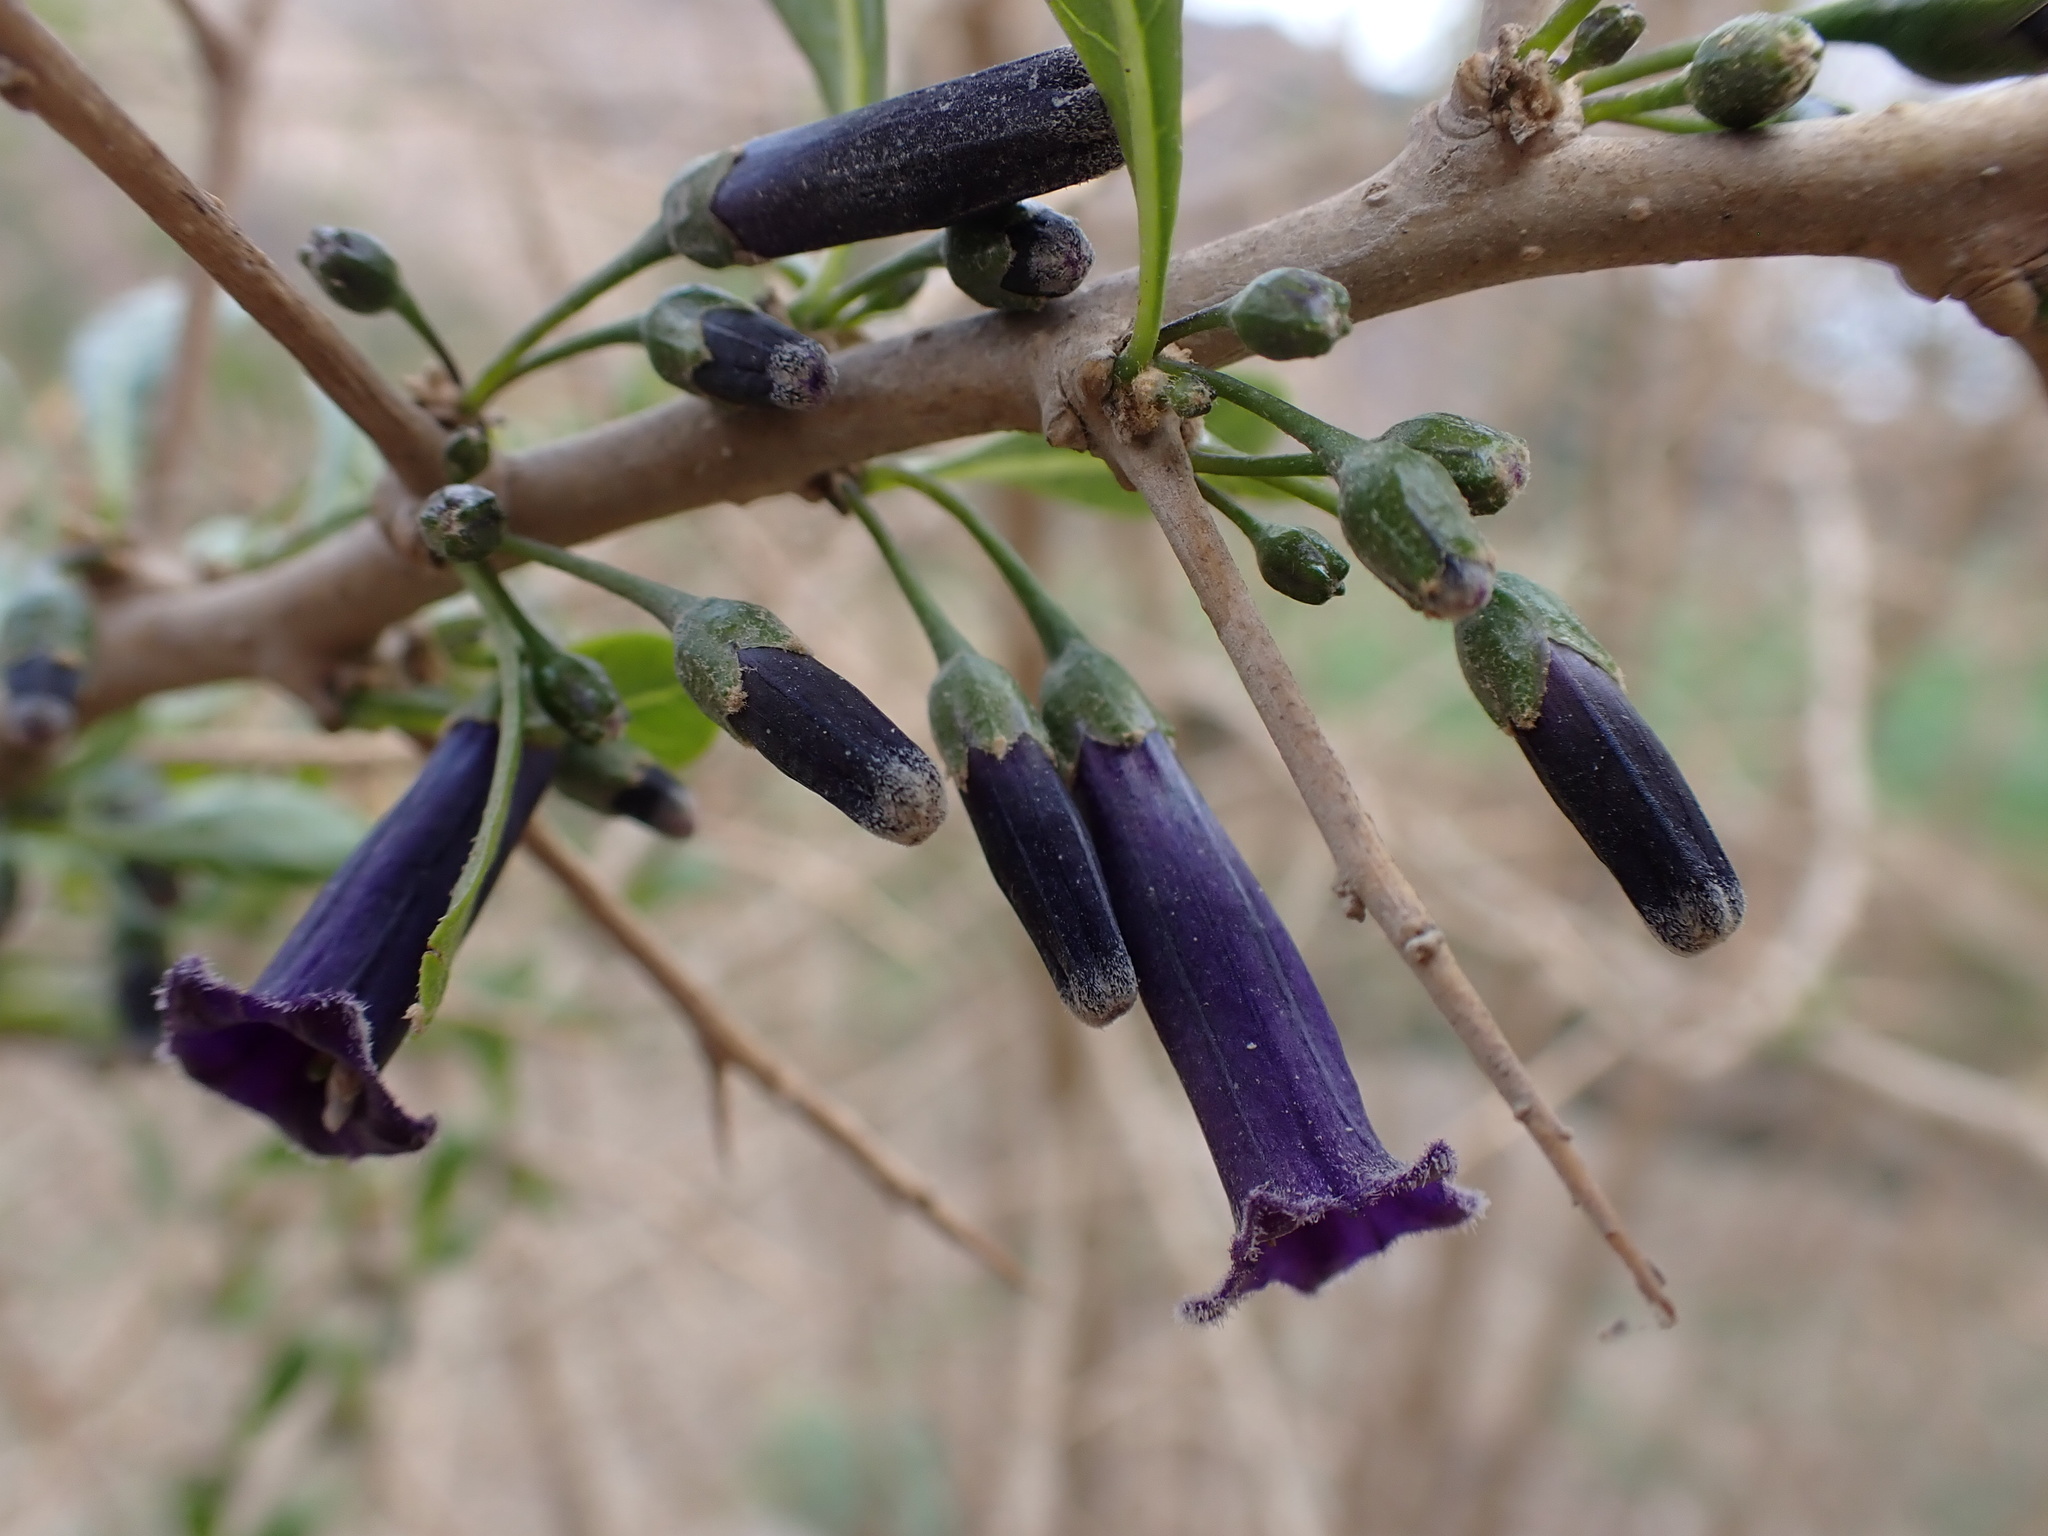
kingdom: Plantae
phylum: Tracheophyta
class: Magnoliopsida
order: Solanales
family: Solanaceae
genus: Dunalia
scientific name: Dunalia spinosa
